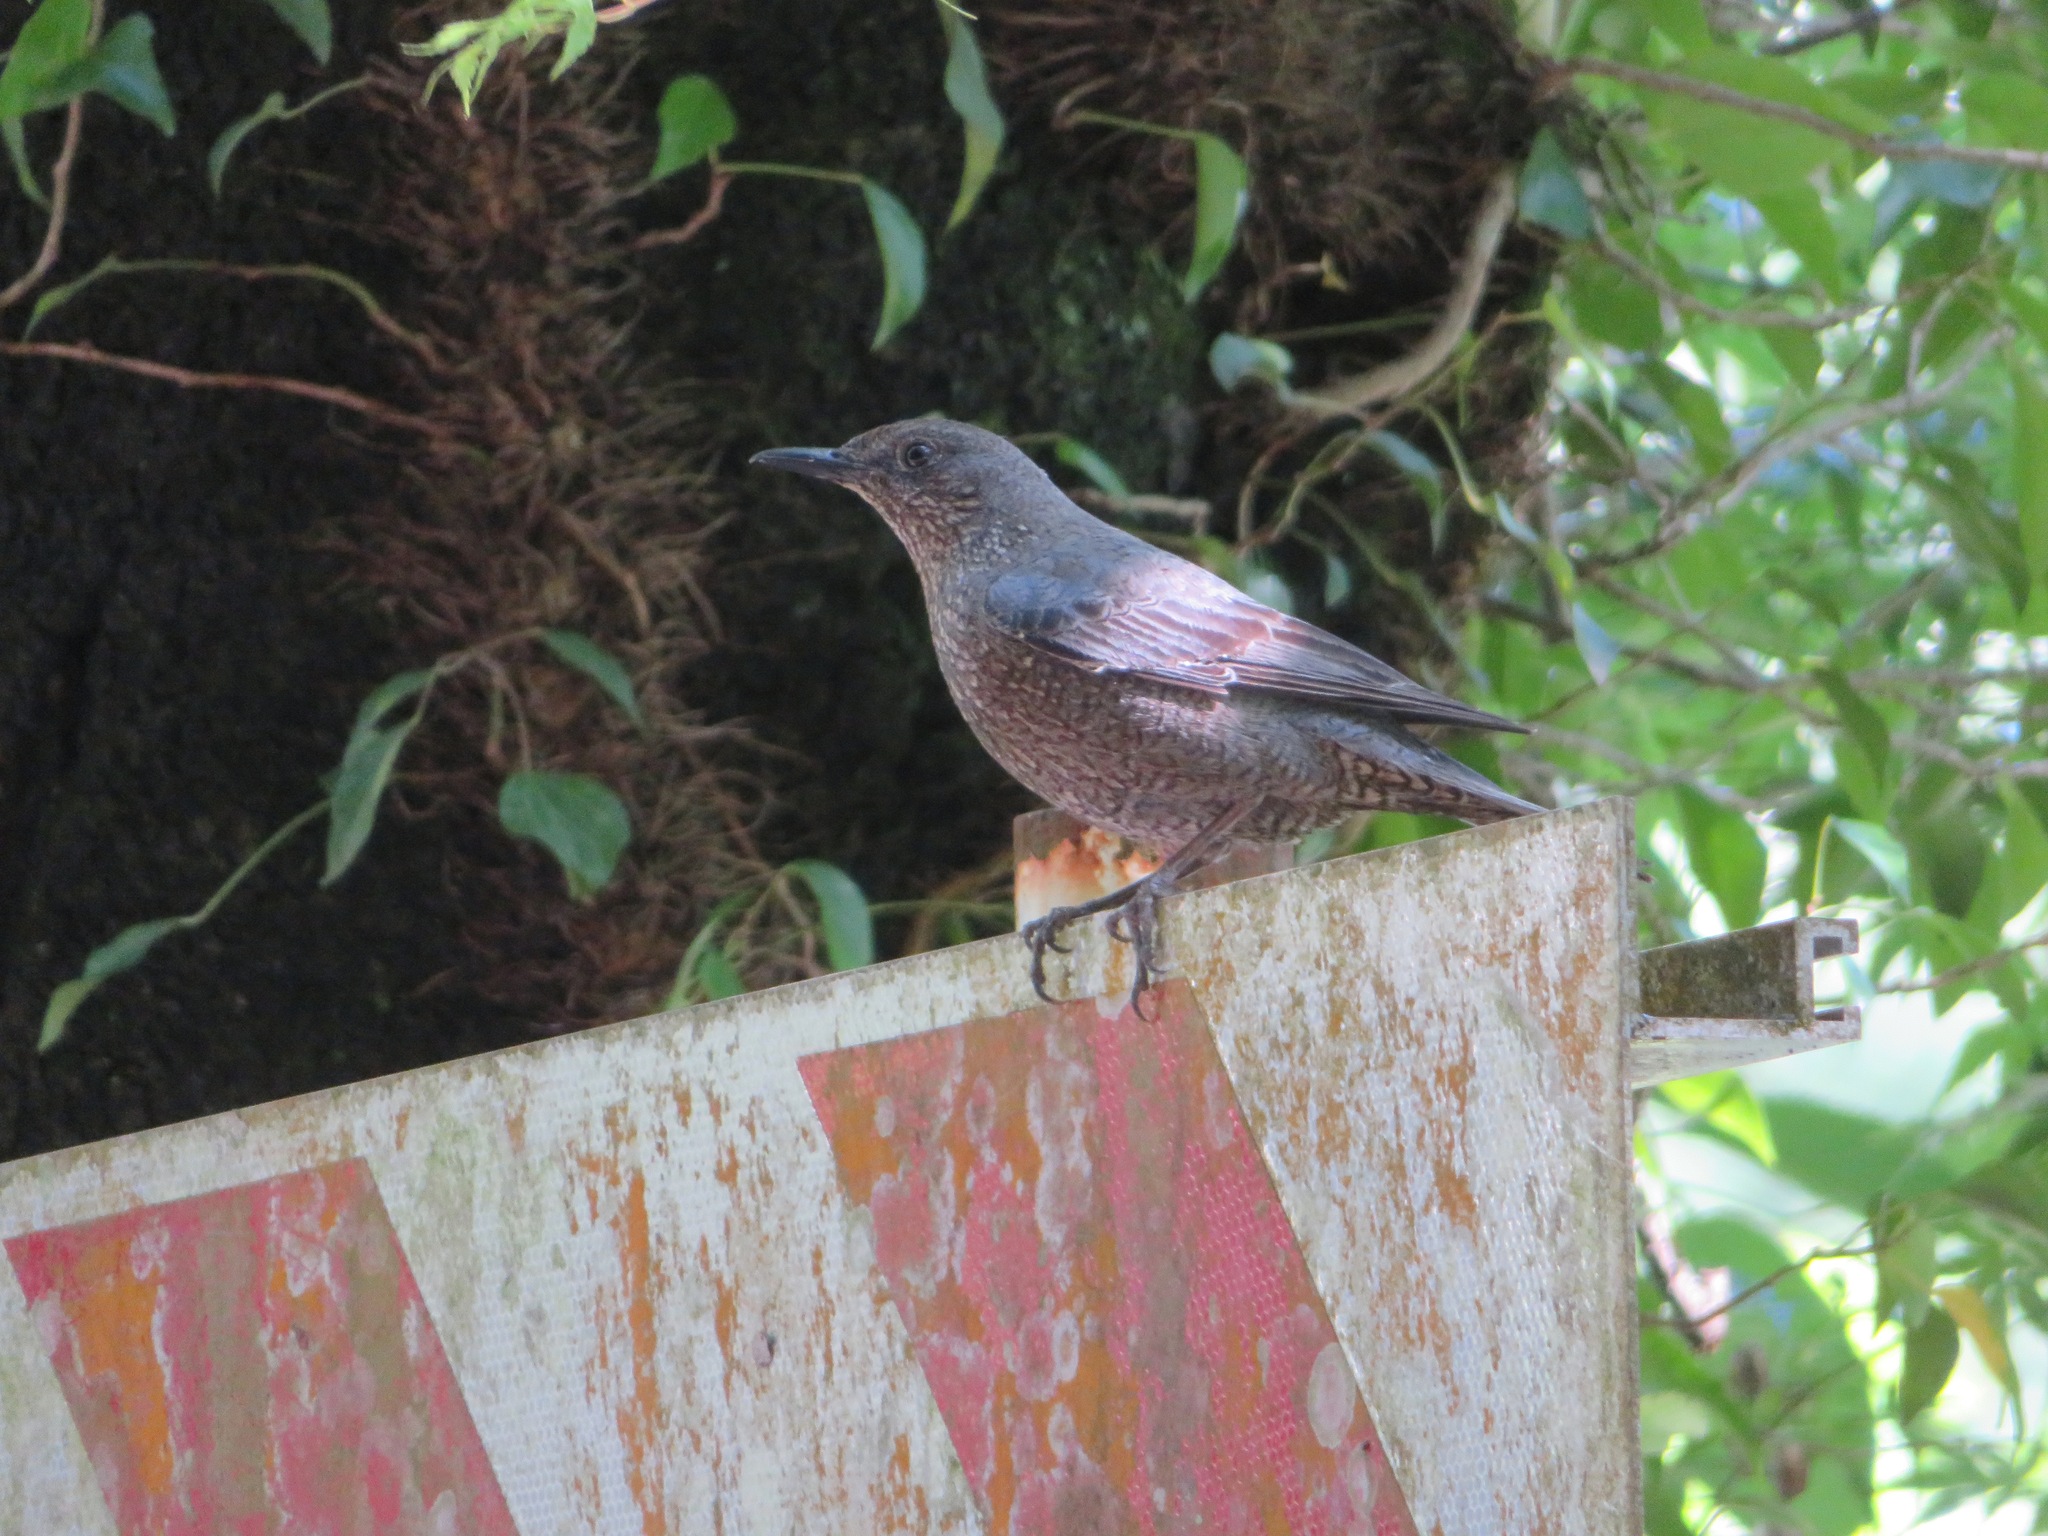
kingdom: Animalia
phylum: Chordata
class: Aves
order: Passeriformes
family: Muscicapidae
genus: Monticola
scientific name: Monticola solitarius
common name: Blue rock thrush
